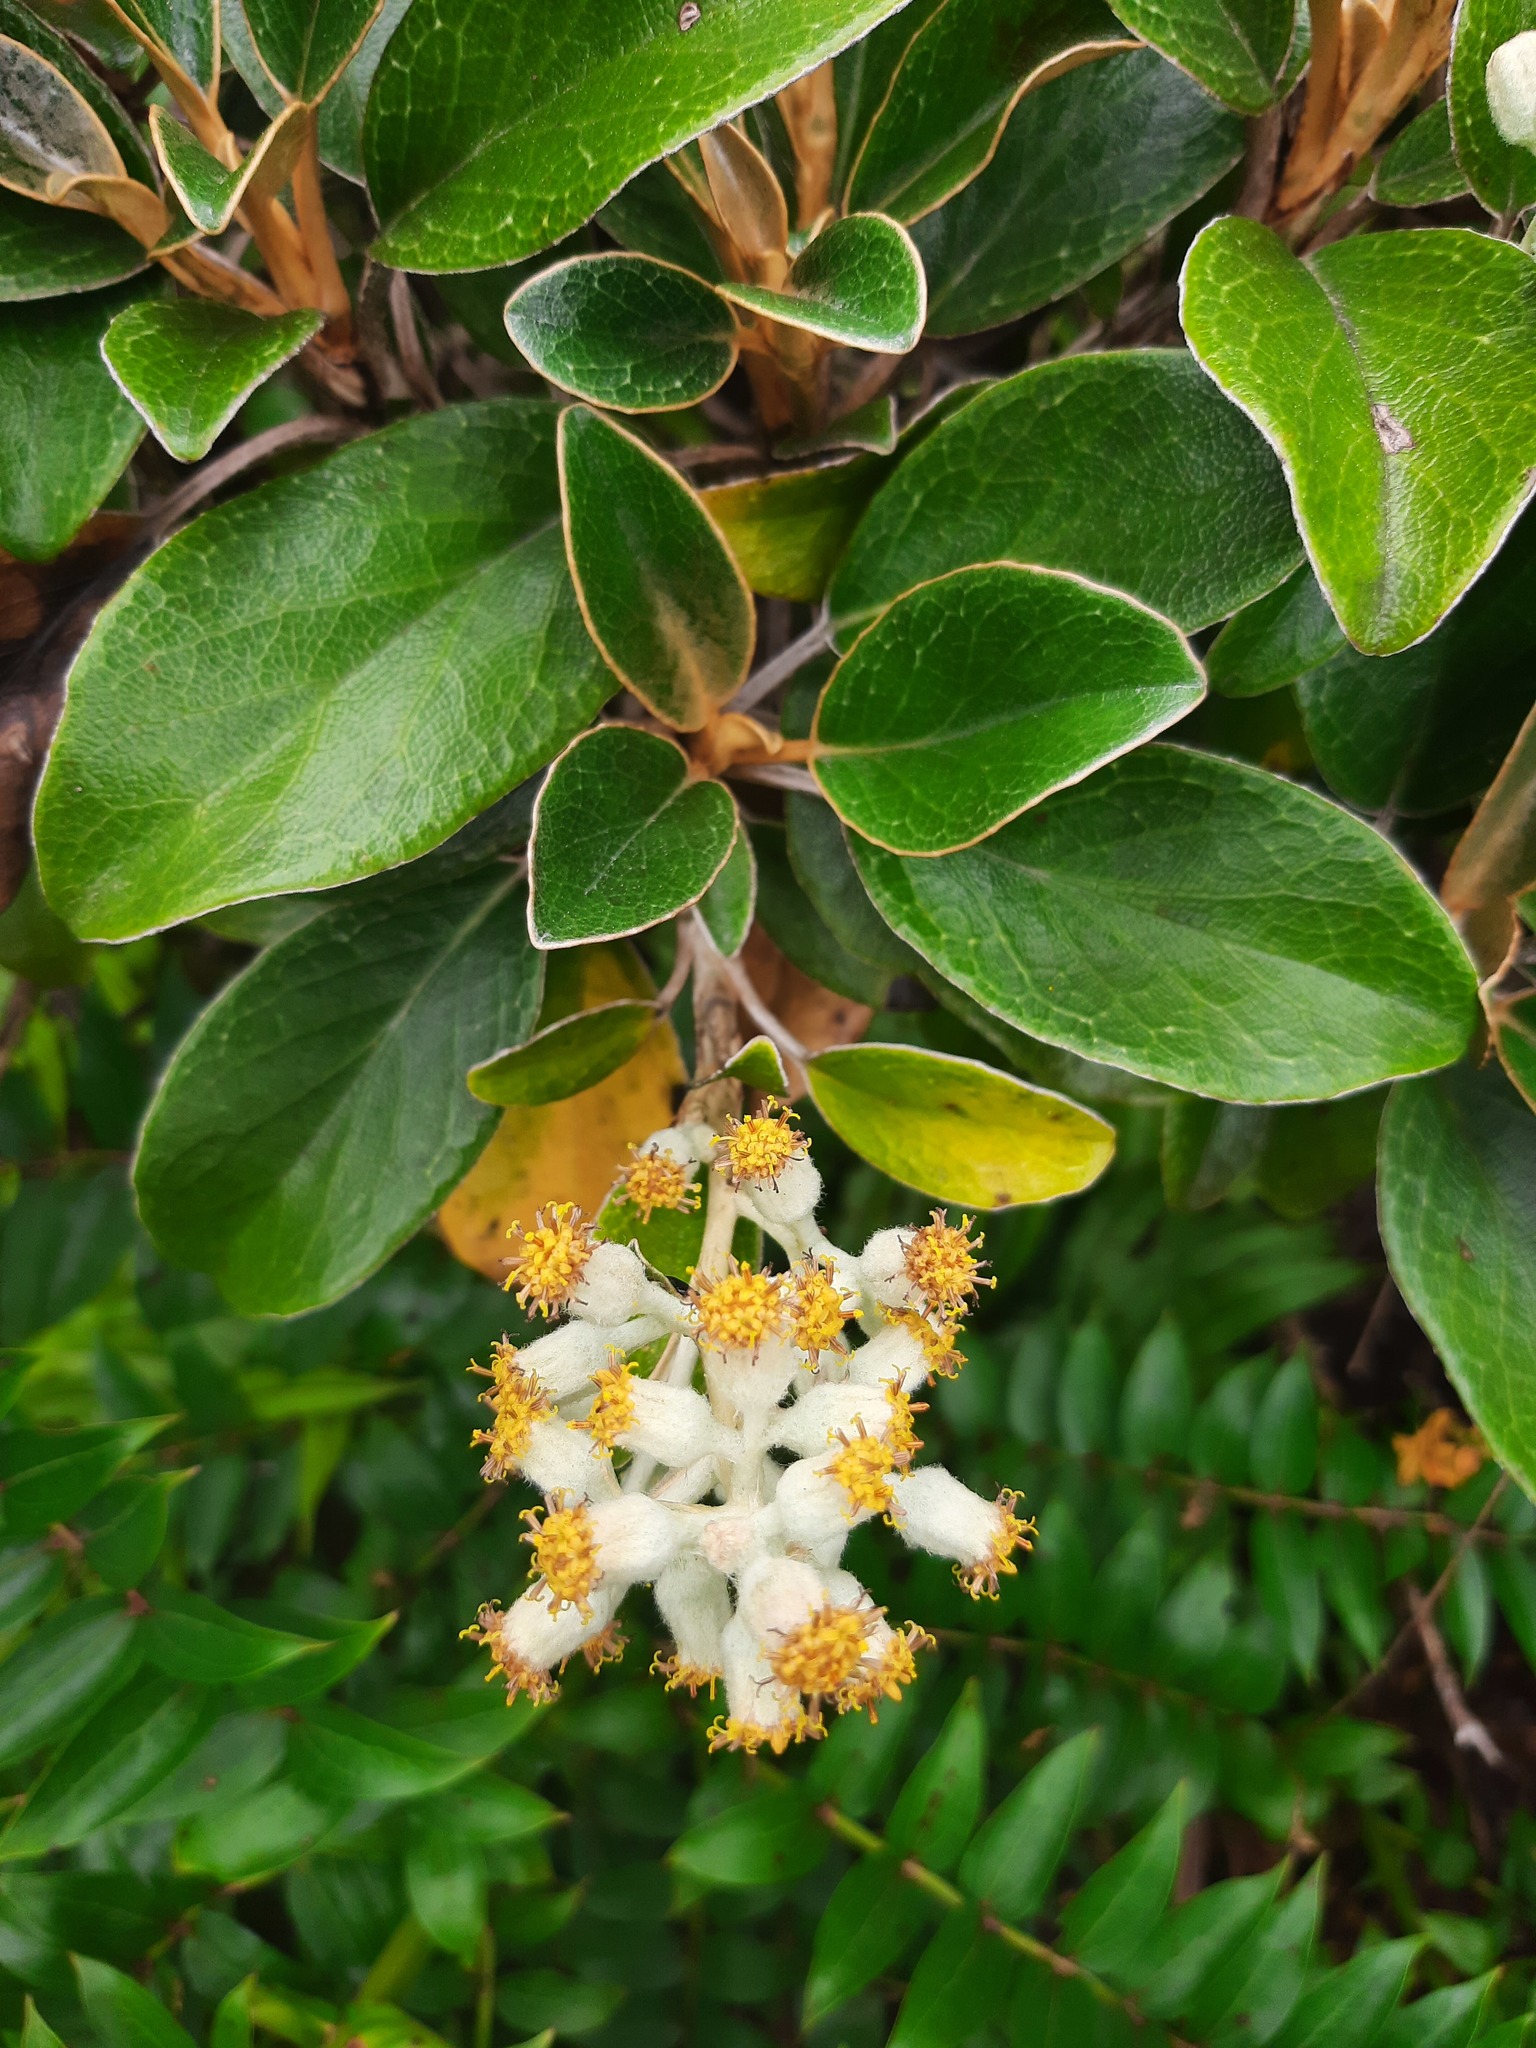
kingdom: Plantae
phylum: Tracheophyta
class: Magnoliopsida
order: Asterales
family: Asteraceae
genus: Brachyglottis
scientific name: Brachyglottis elaeagnifolia
